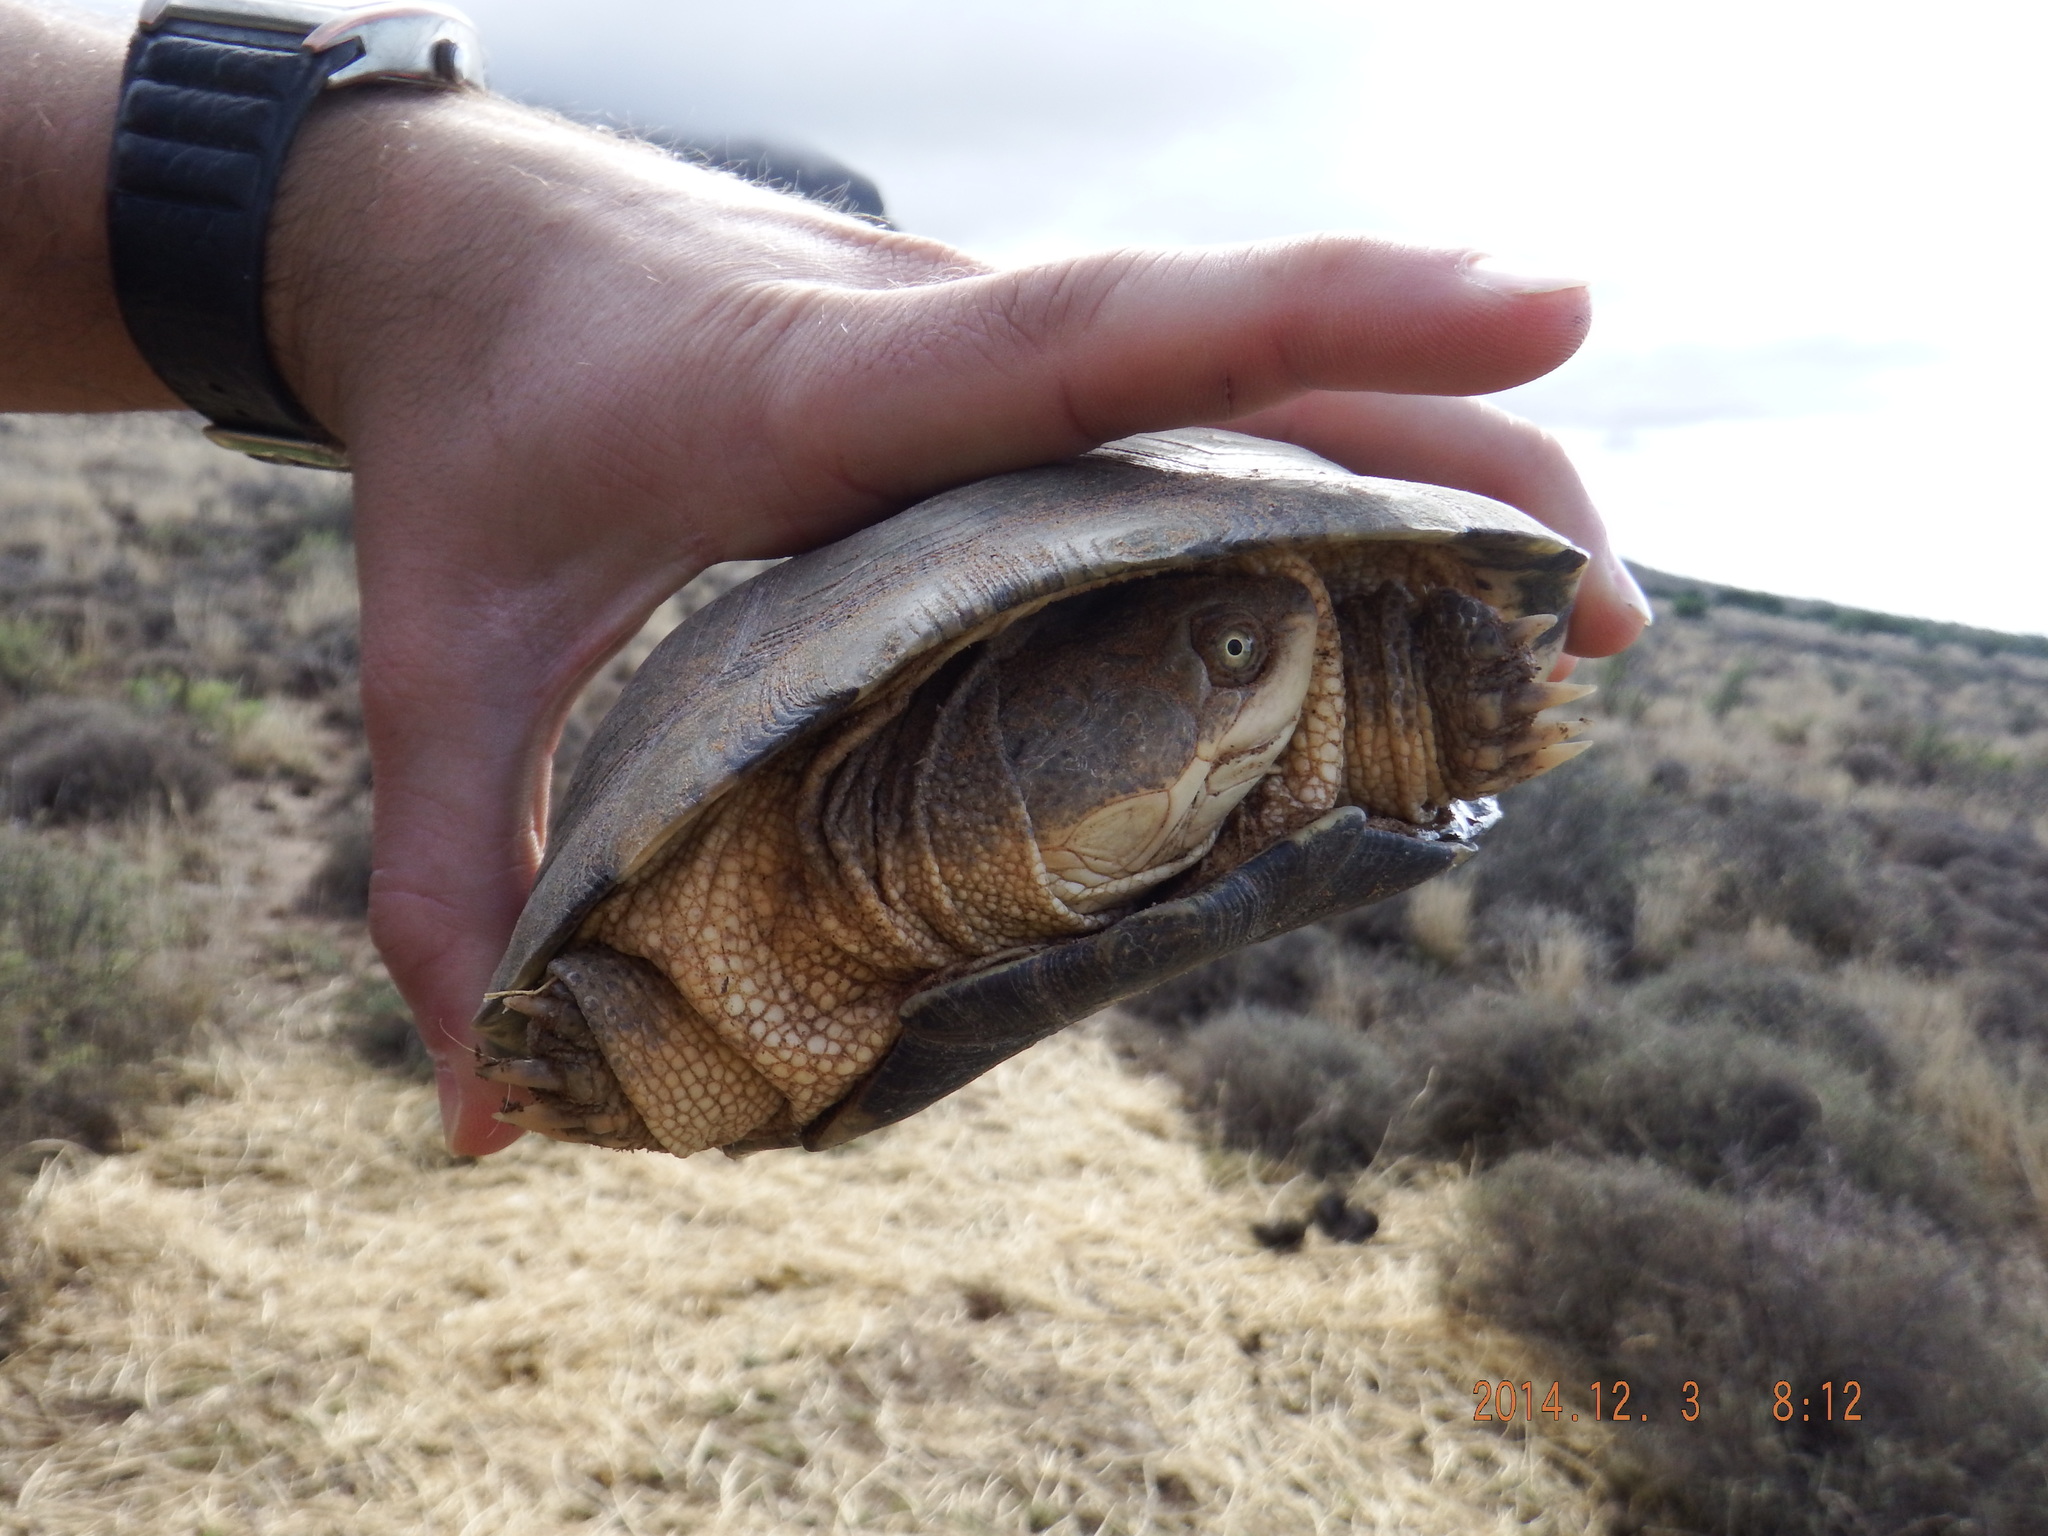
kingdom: Animalia
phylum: Chordata
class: Testudines
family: Pelomedusidae
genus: Pelomedusa
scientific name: Pelomedusa galeata
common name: South african helmeted terrapin
